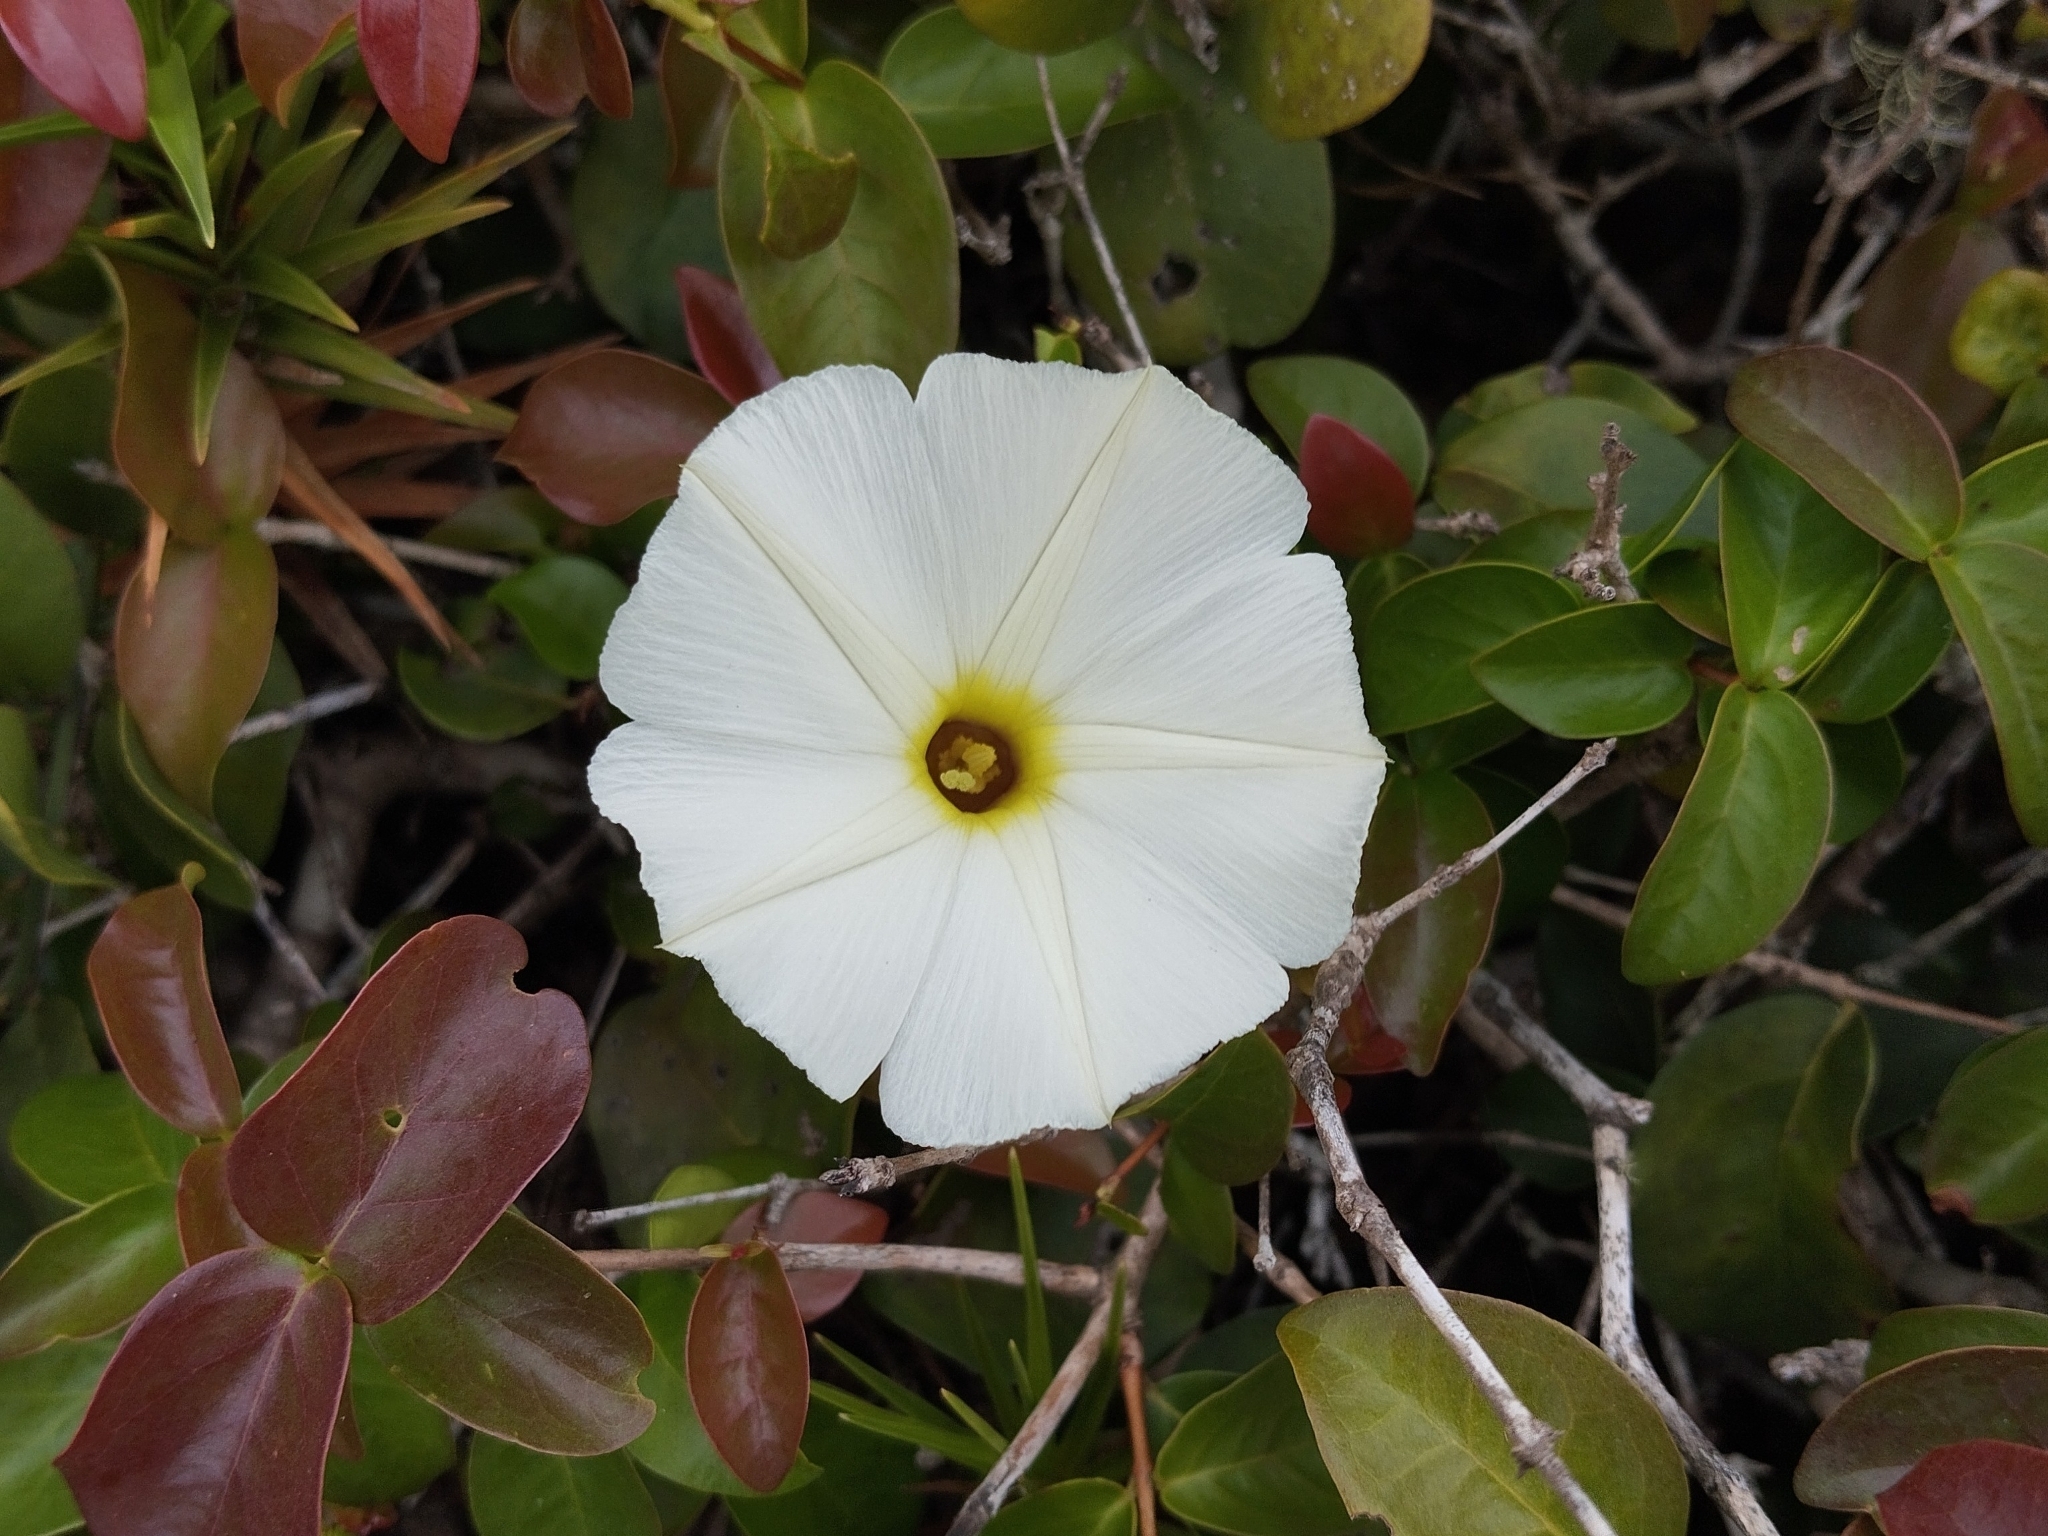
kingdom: Plantae
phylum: Tracheophyta
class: Magnoliopsida
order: Solanales
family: Convolvulaceae
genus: Ipomoea
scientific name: Ipomoea imperati
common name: Fiddle-leaf morning-glory
